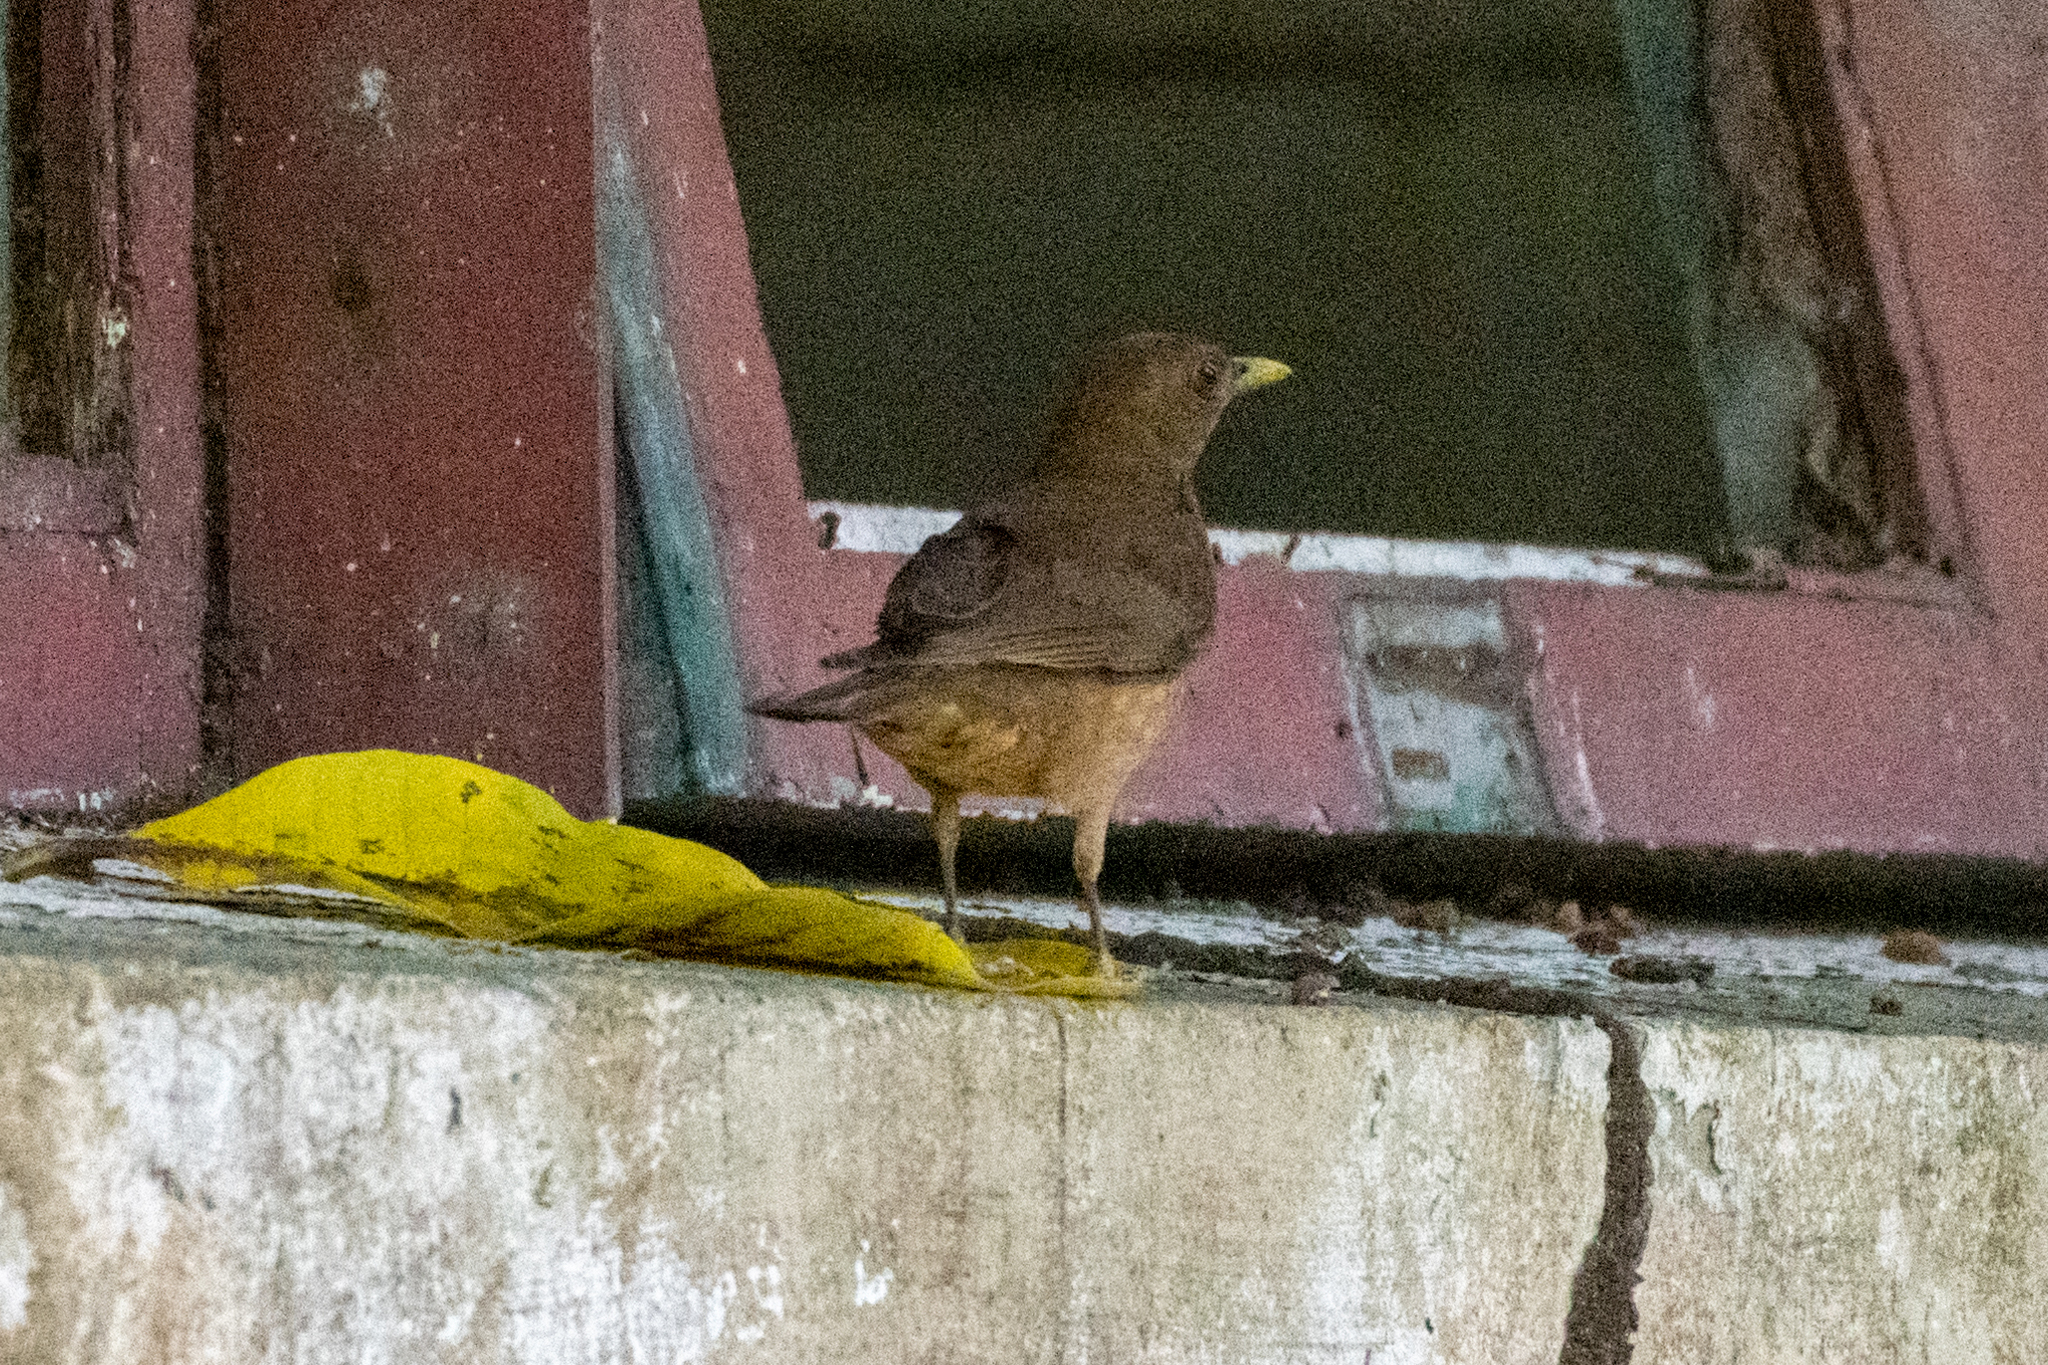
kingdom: Animalia
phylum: Chordata
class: Aves
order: Passeriformes
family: Turdidae
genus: Turdus
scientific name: Turdus grayi
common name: Clay-colored thrush
